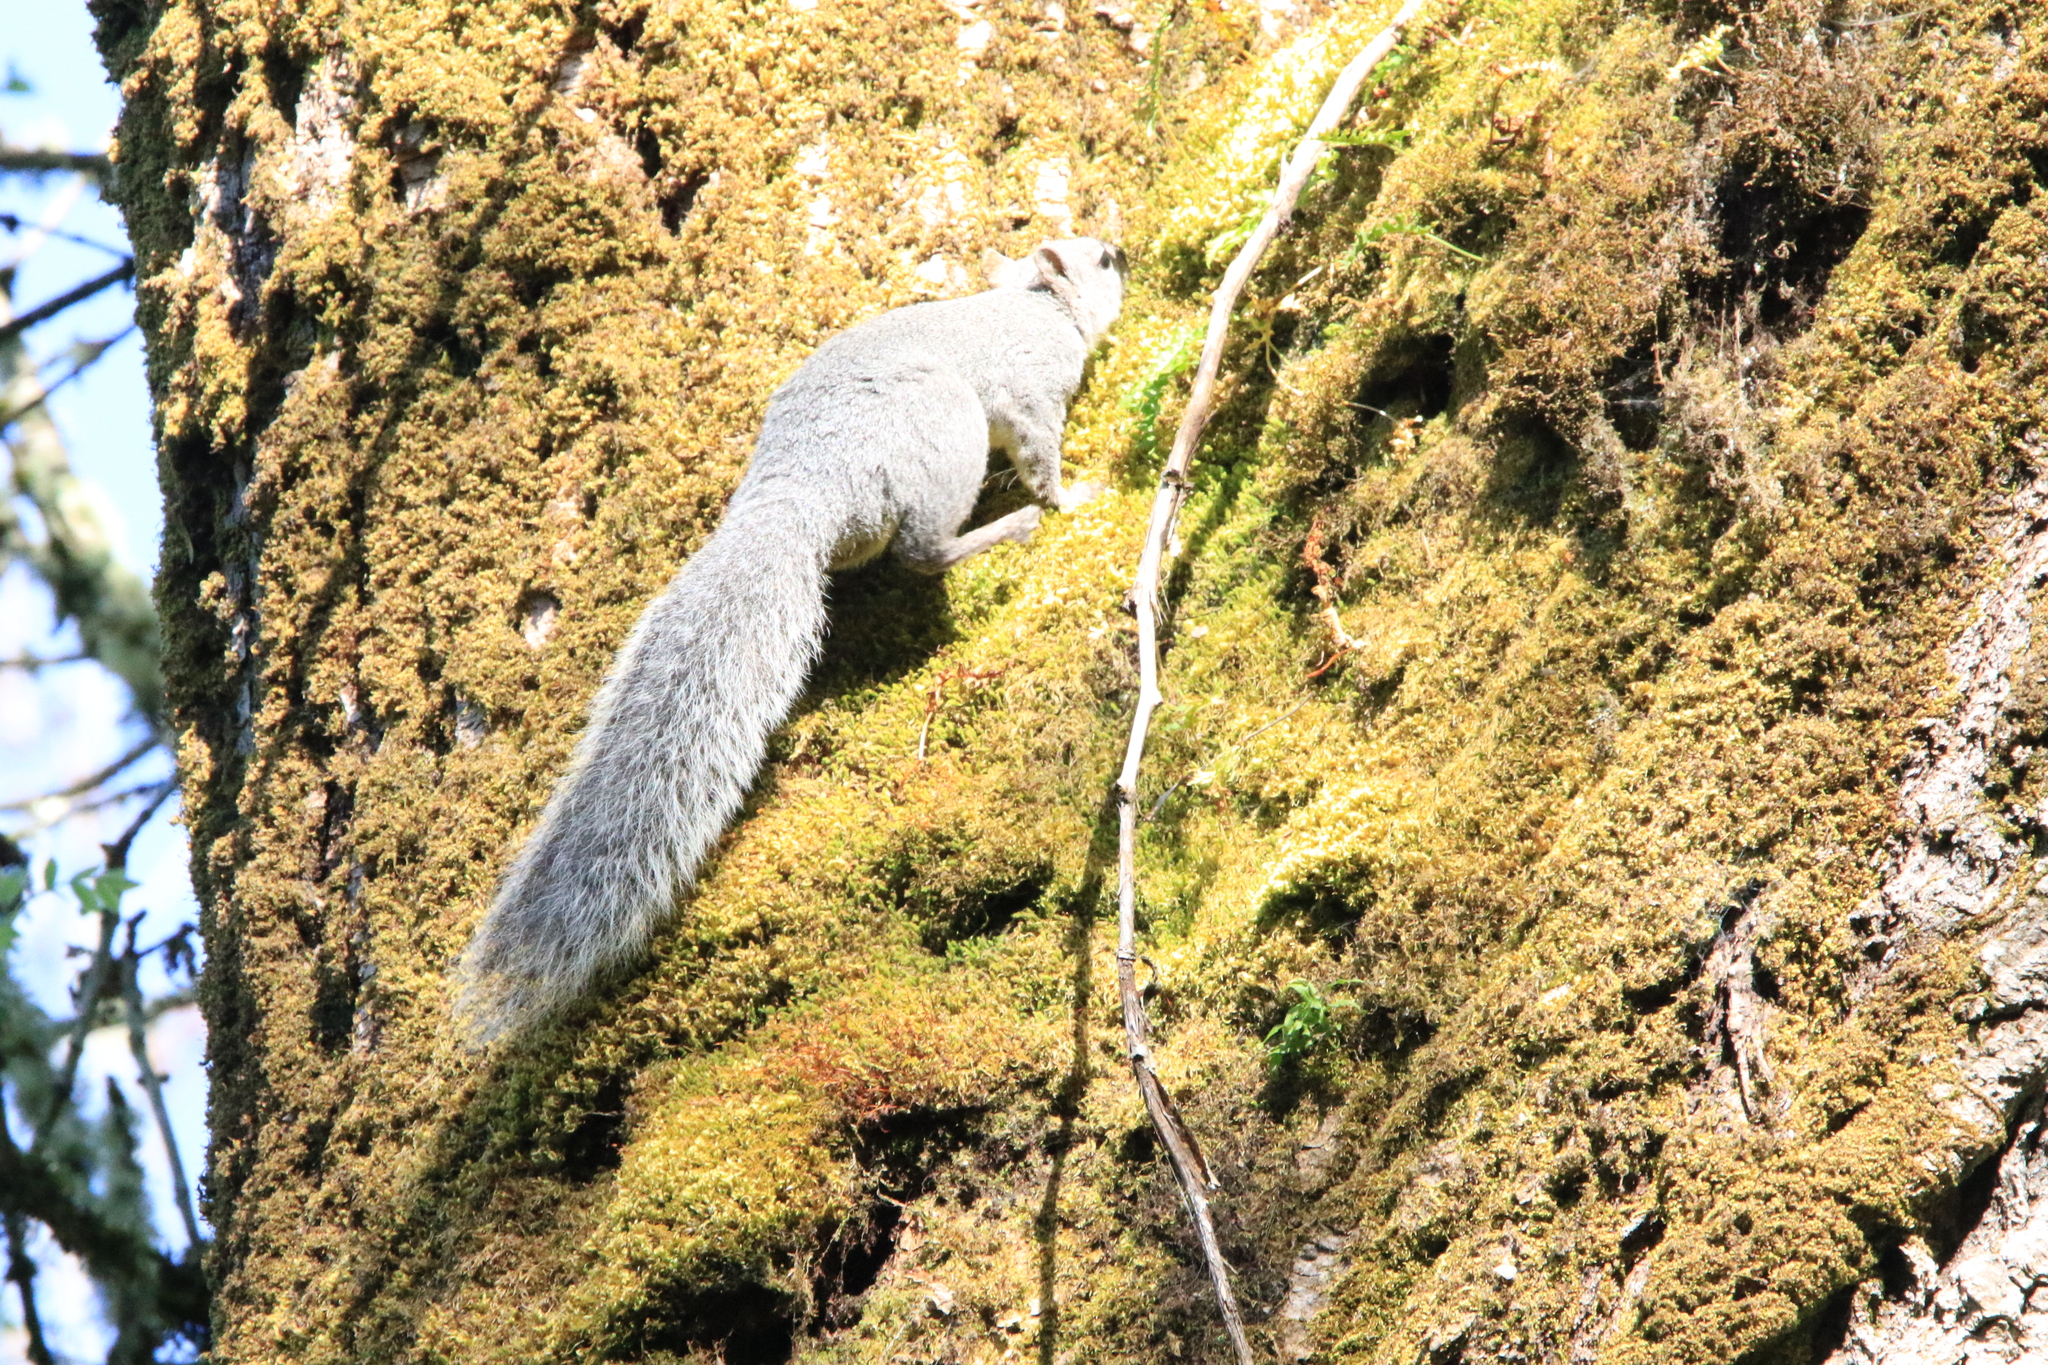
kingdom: Animalia
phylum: Chordata
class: Mammalia
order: Rodentia
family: Sciuridae
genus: Sciurus
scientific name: Sciurus griseus
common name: Western gray squirrel
